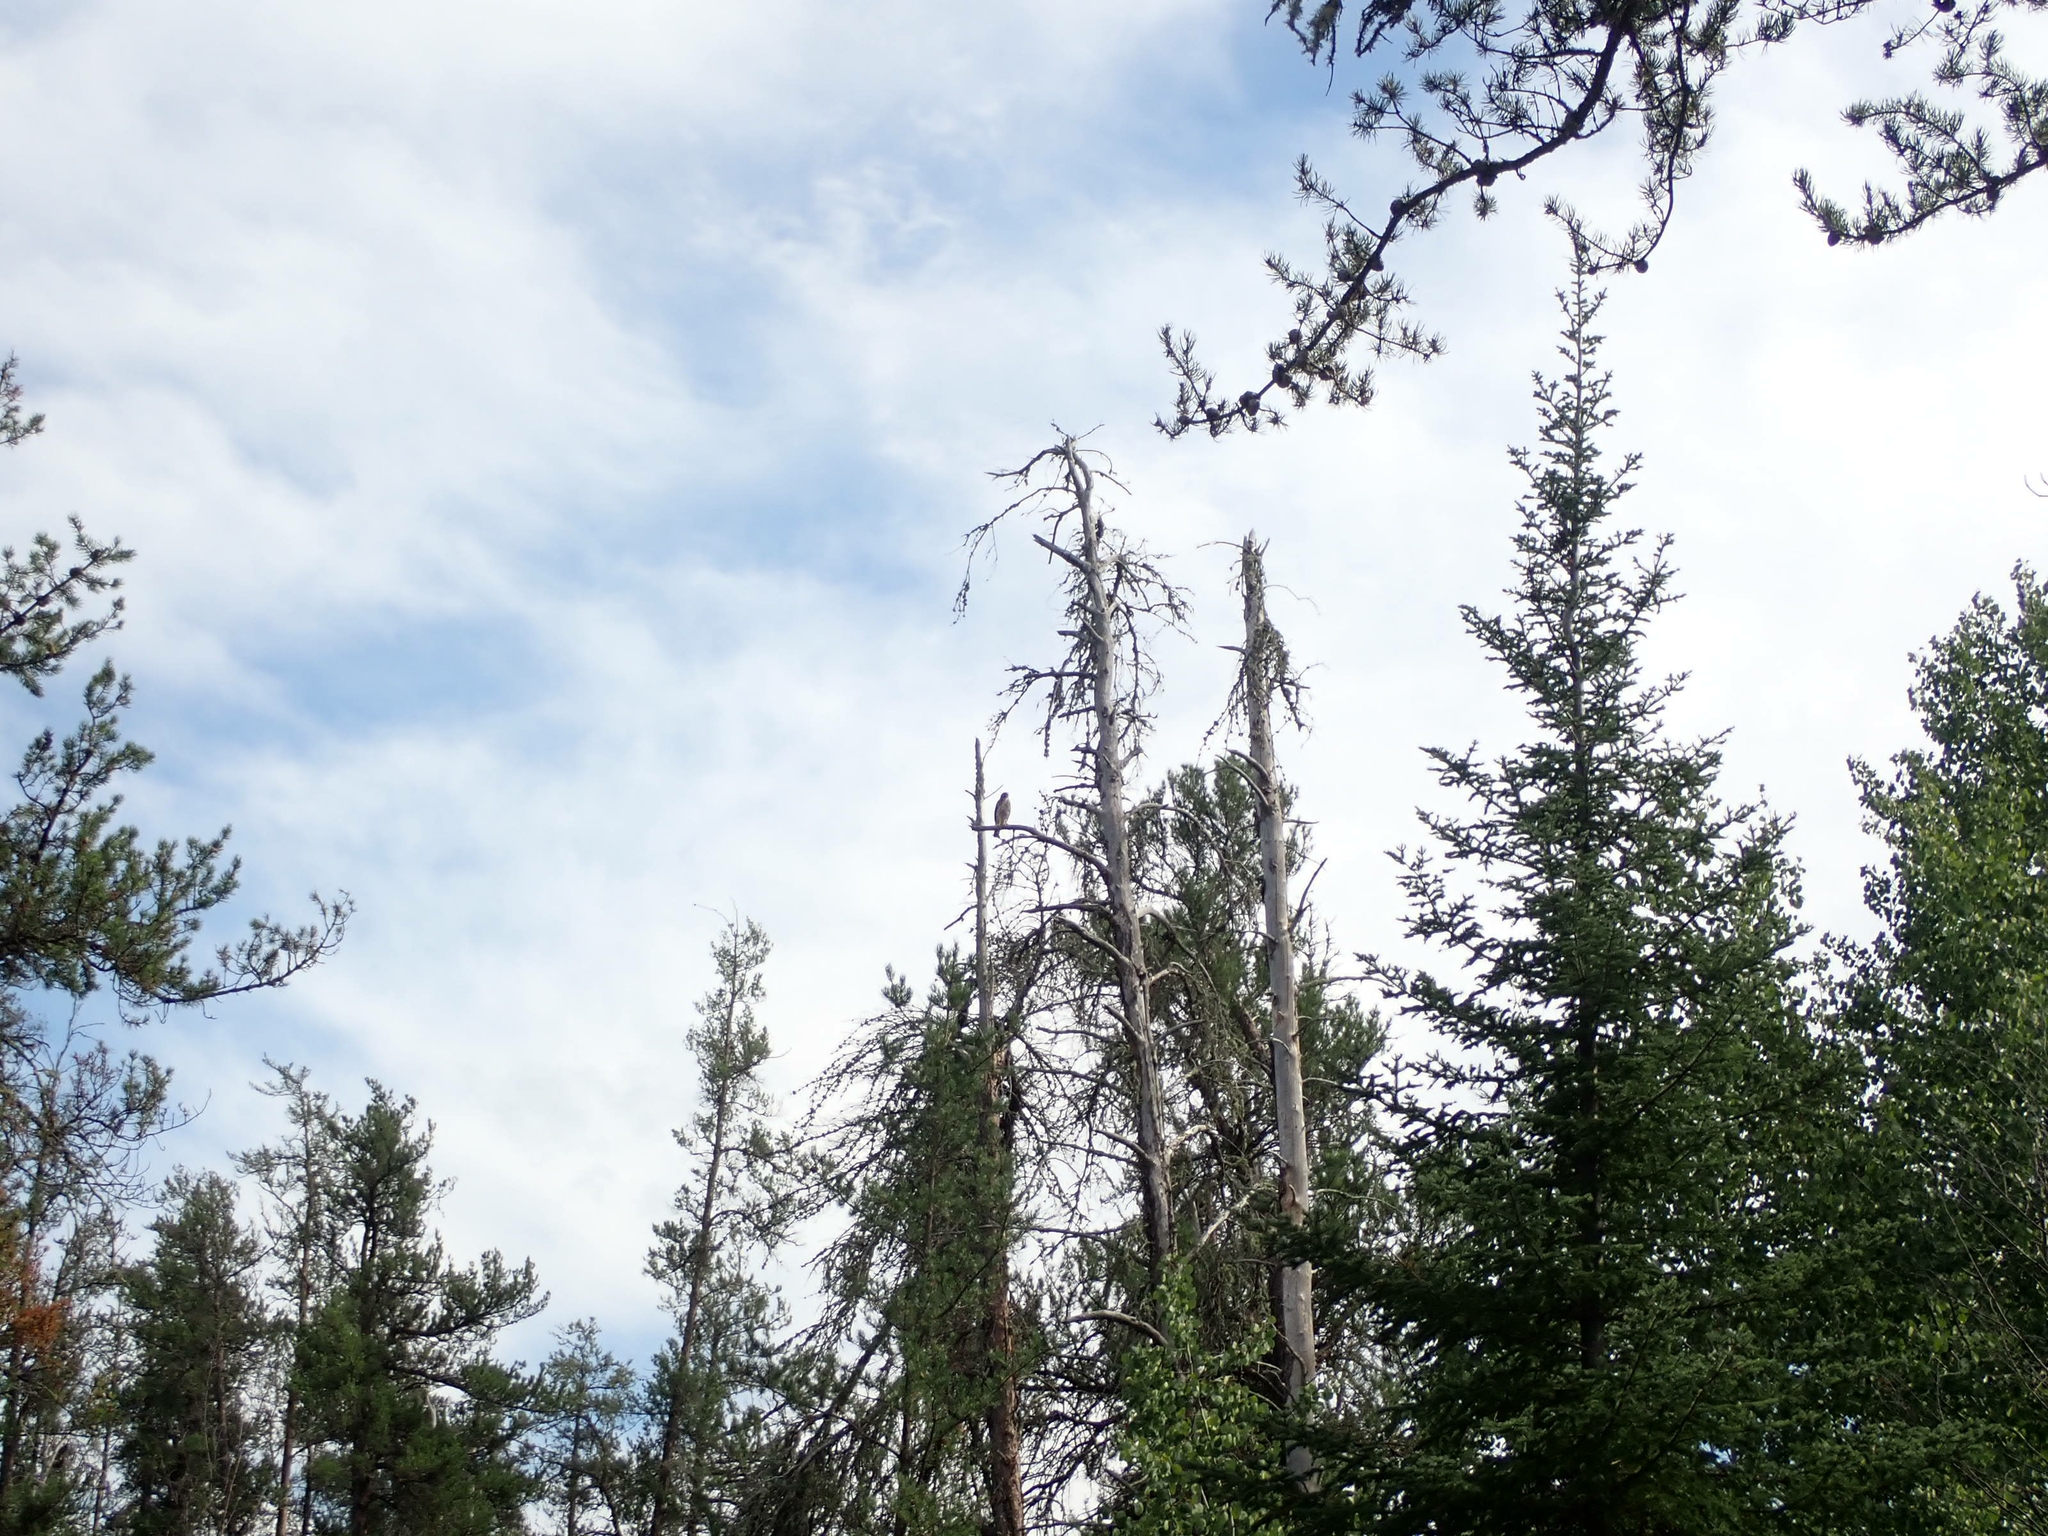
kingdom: Animalia
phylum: Chordata
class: Aves
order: Accipitriformes
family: Accipitridae
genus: Buteo
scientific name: Buteo platypterus
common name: Broad-winged hawk
